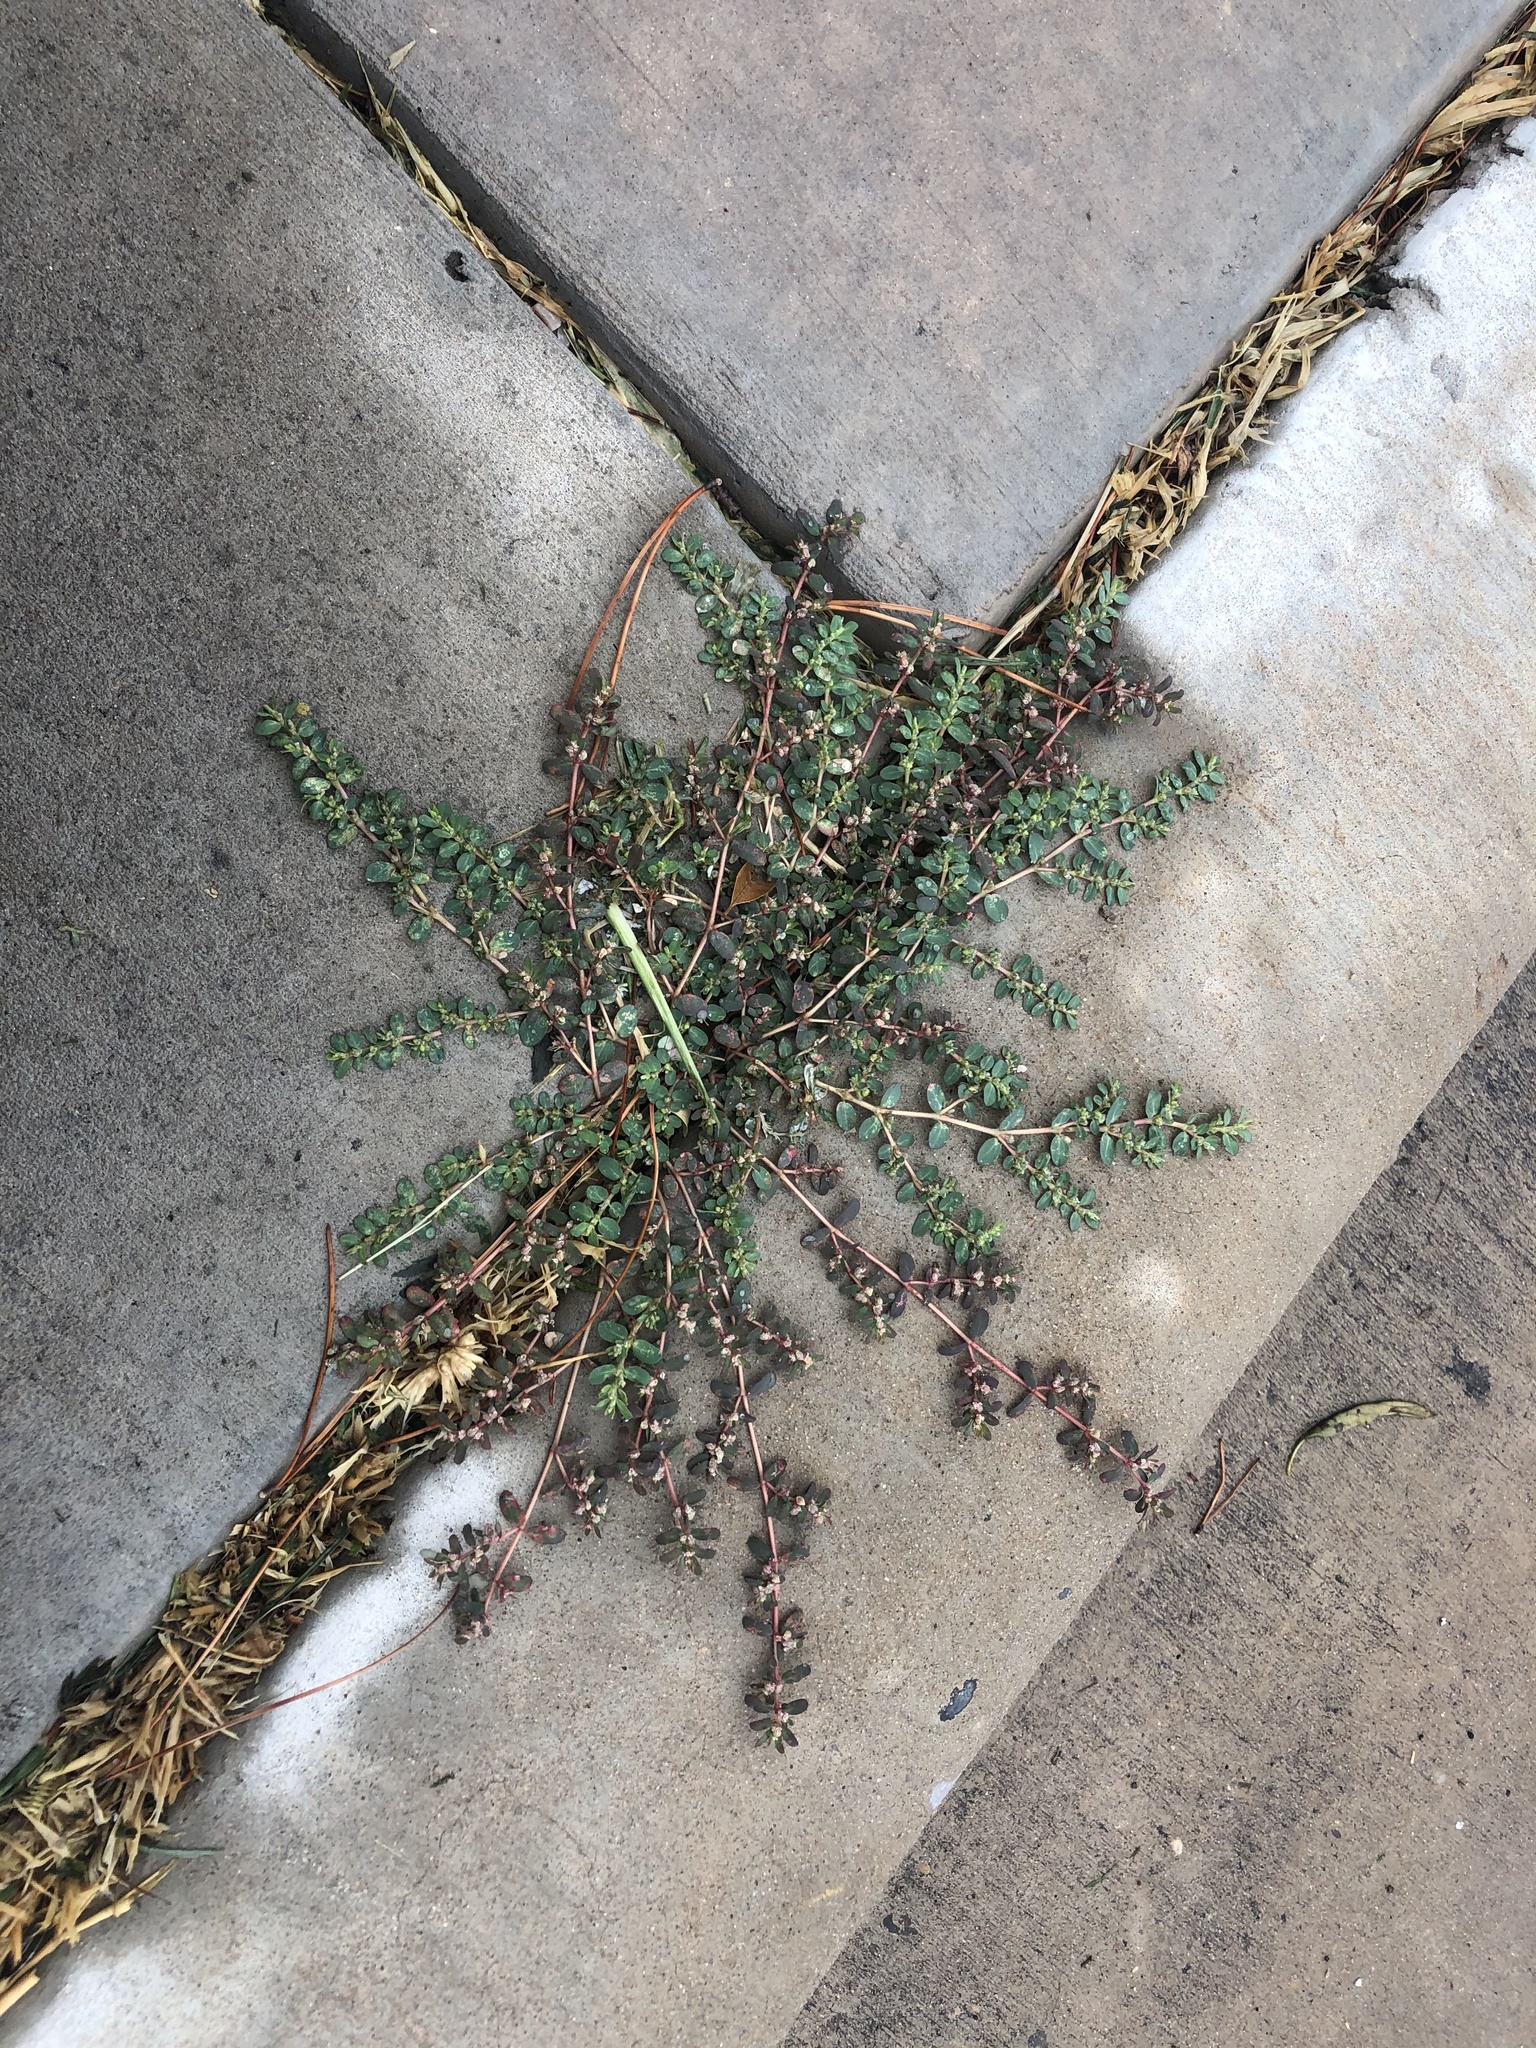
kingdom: Plantae
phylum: Tracheophyta
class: Magnoliopsida
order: Malpighiales
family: Euphorbiaceae
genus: Euphorbia
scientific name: Euphorbia prostrata
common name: Prostrate sandmat
